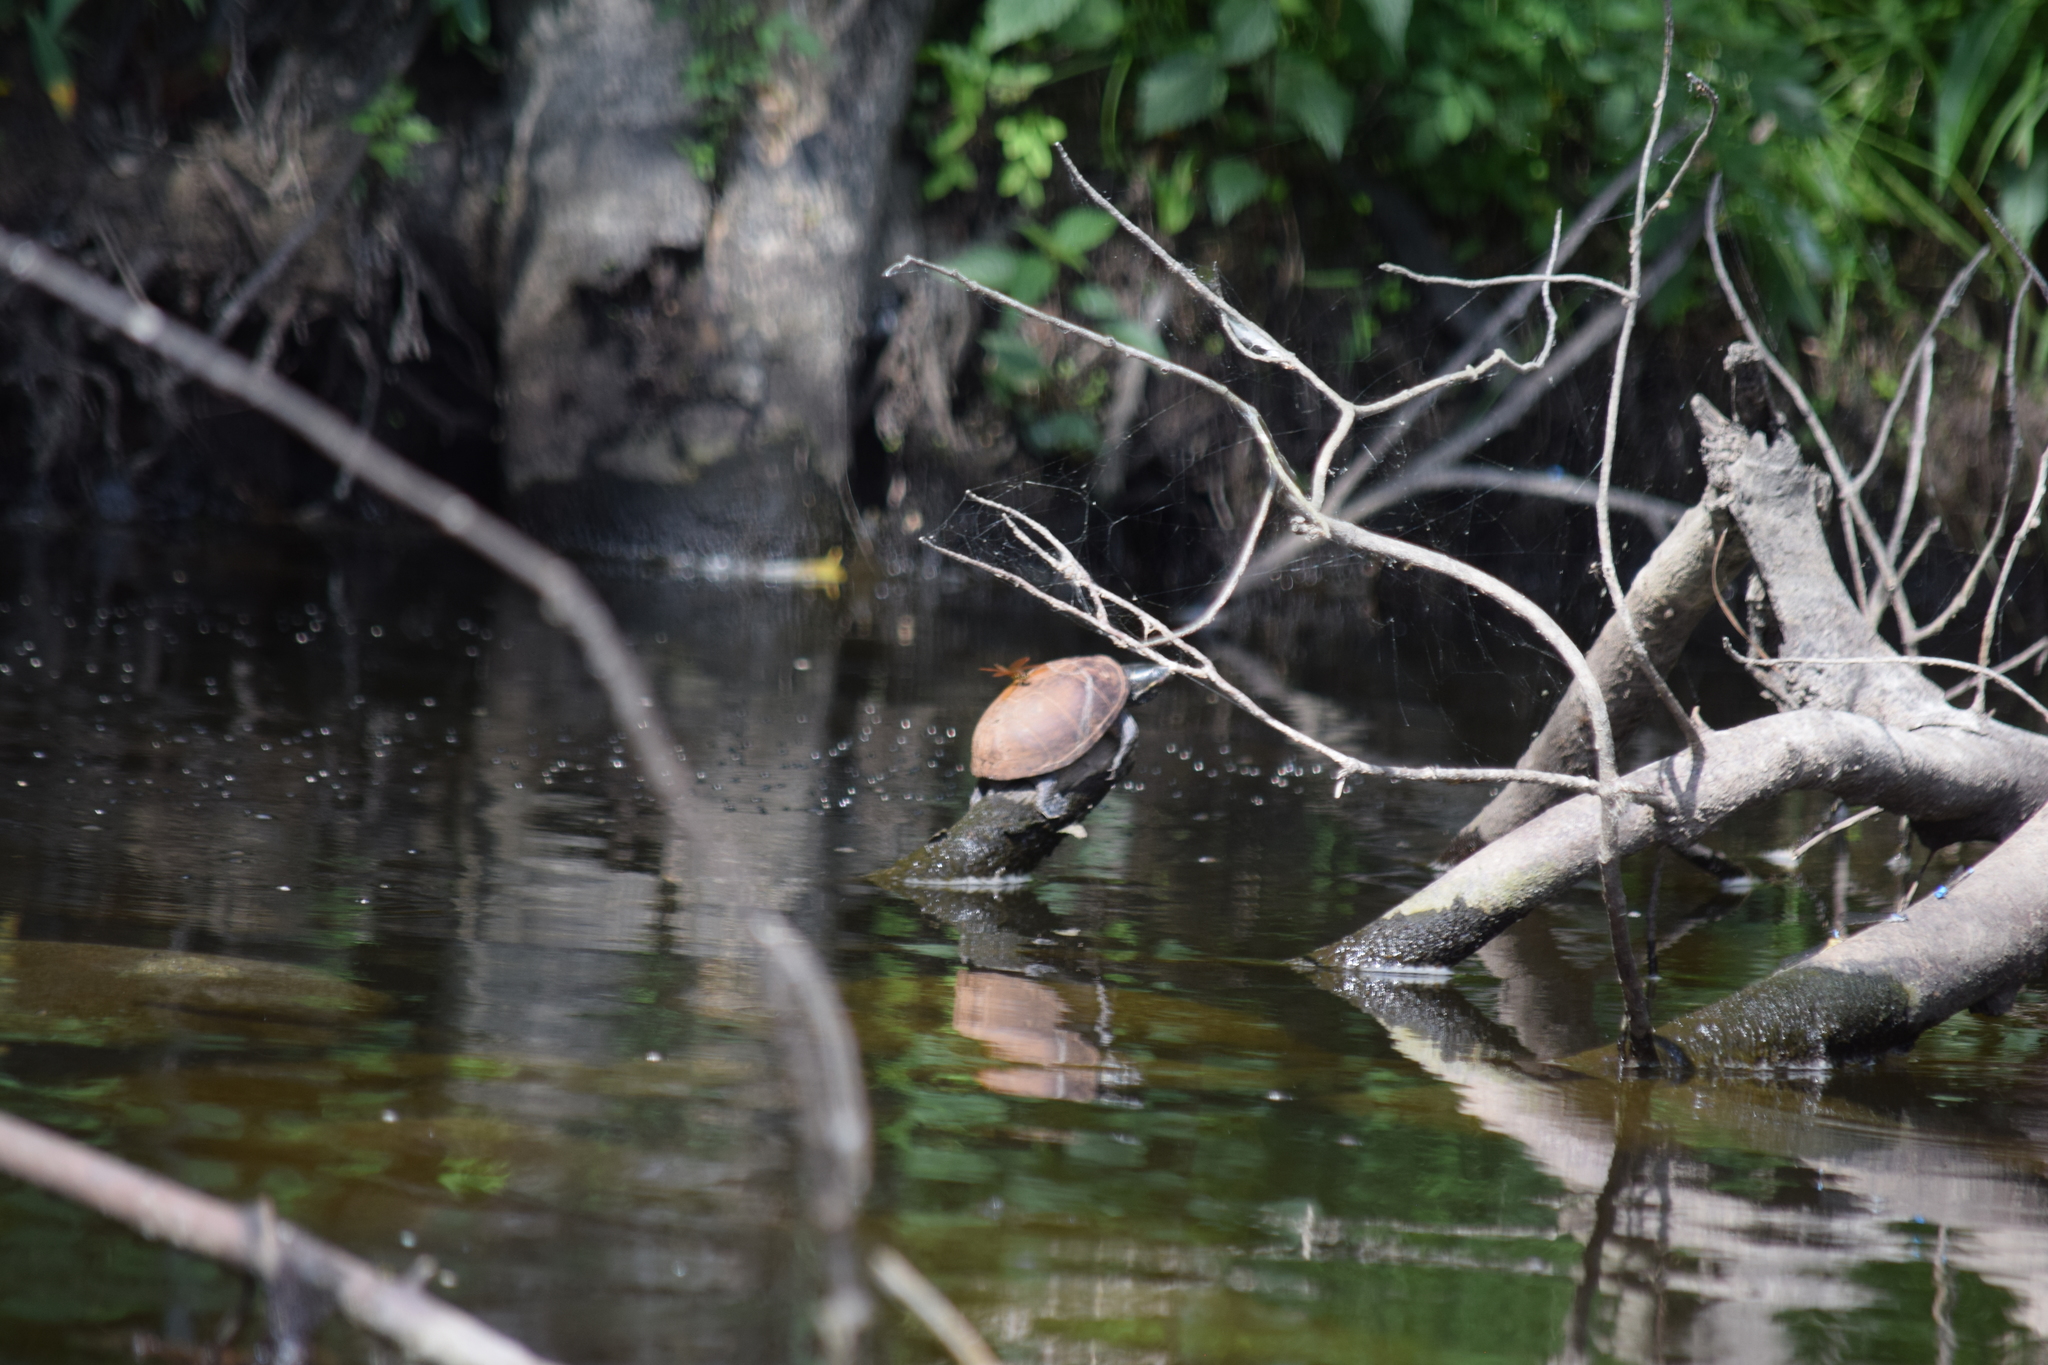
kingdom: Animalia
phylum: Chordata
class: Testudines
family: Kinosternidae
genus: Sternotherus
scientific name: Sternotherus odoratus
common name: Common musk turtle
